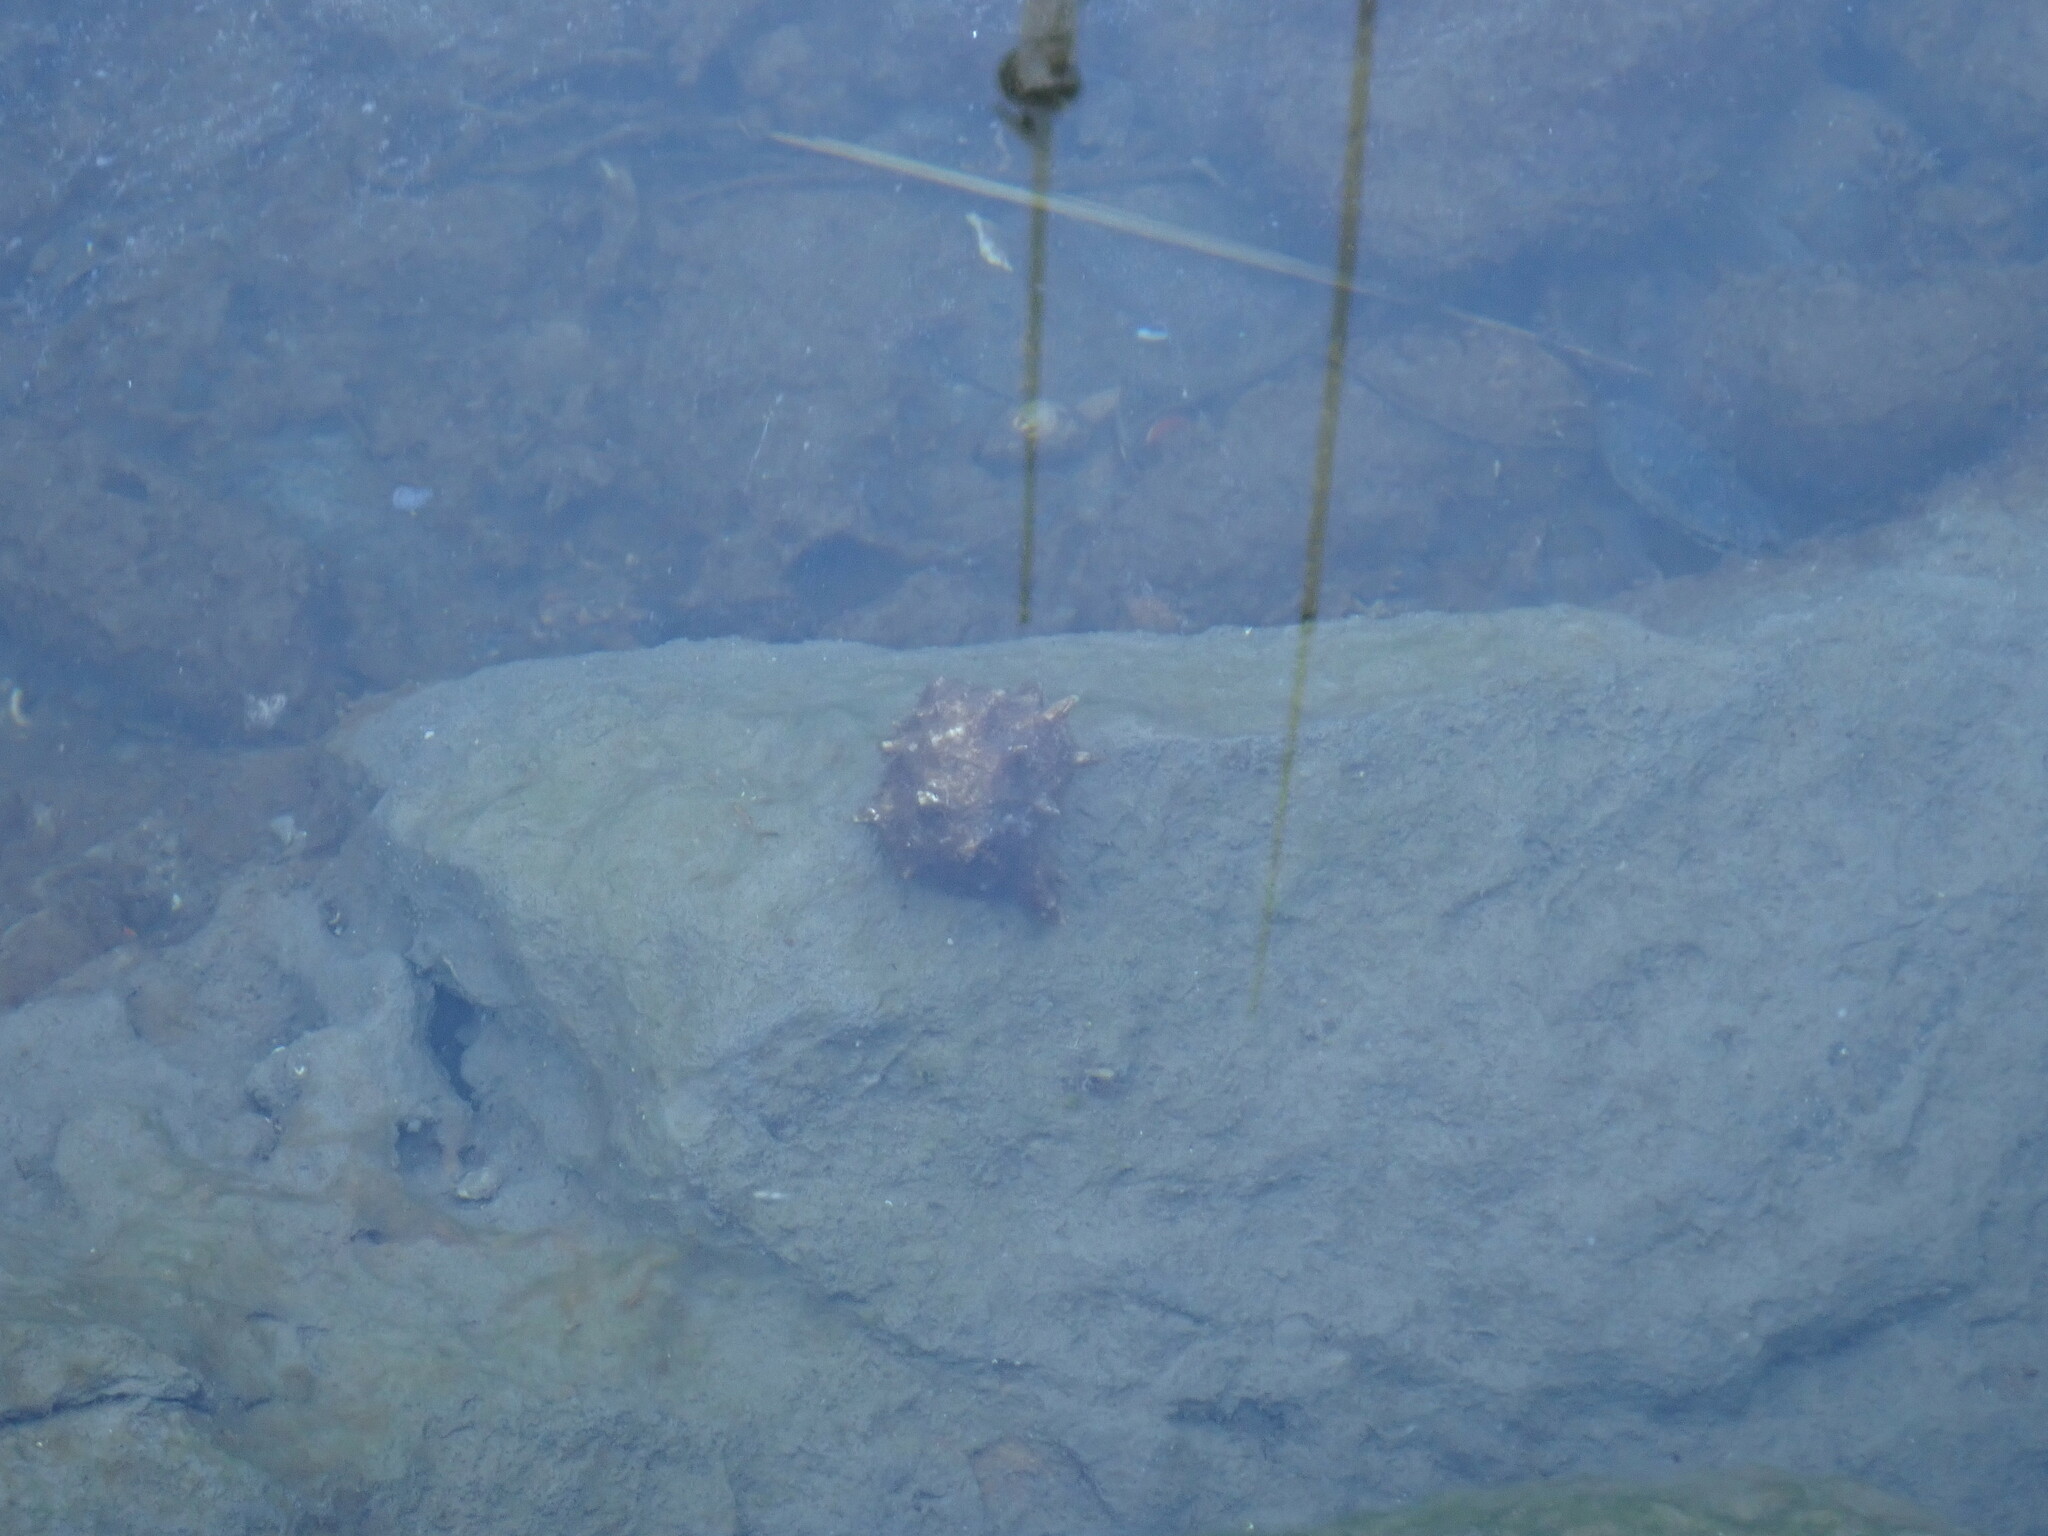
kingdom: Animalia
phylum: Mollusca
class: Gastropoda
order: Neogastropoda
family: Muricidae
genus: Bolinus
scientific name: Bolinus brandaris
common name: Dye murex
